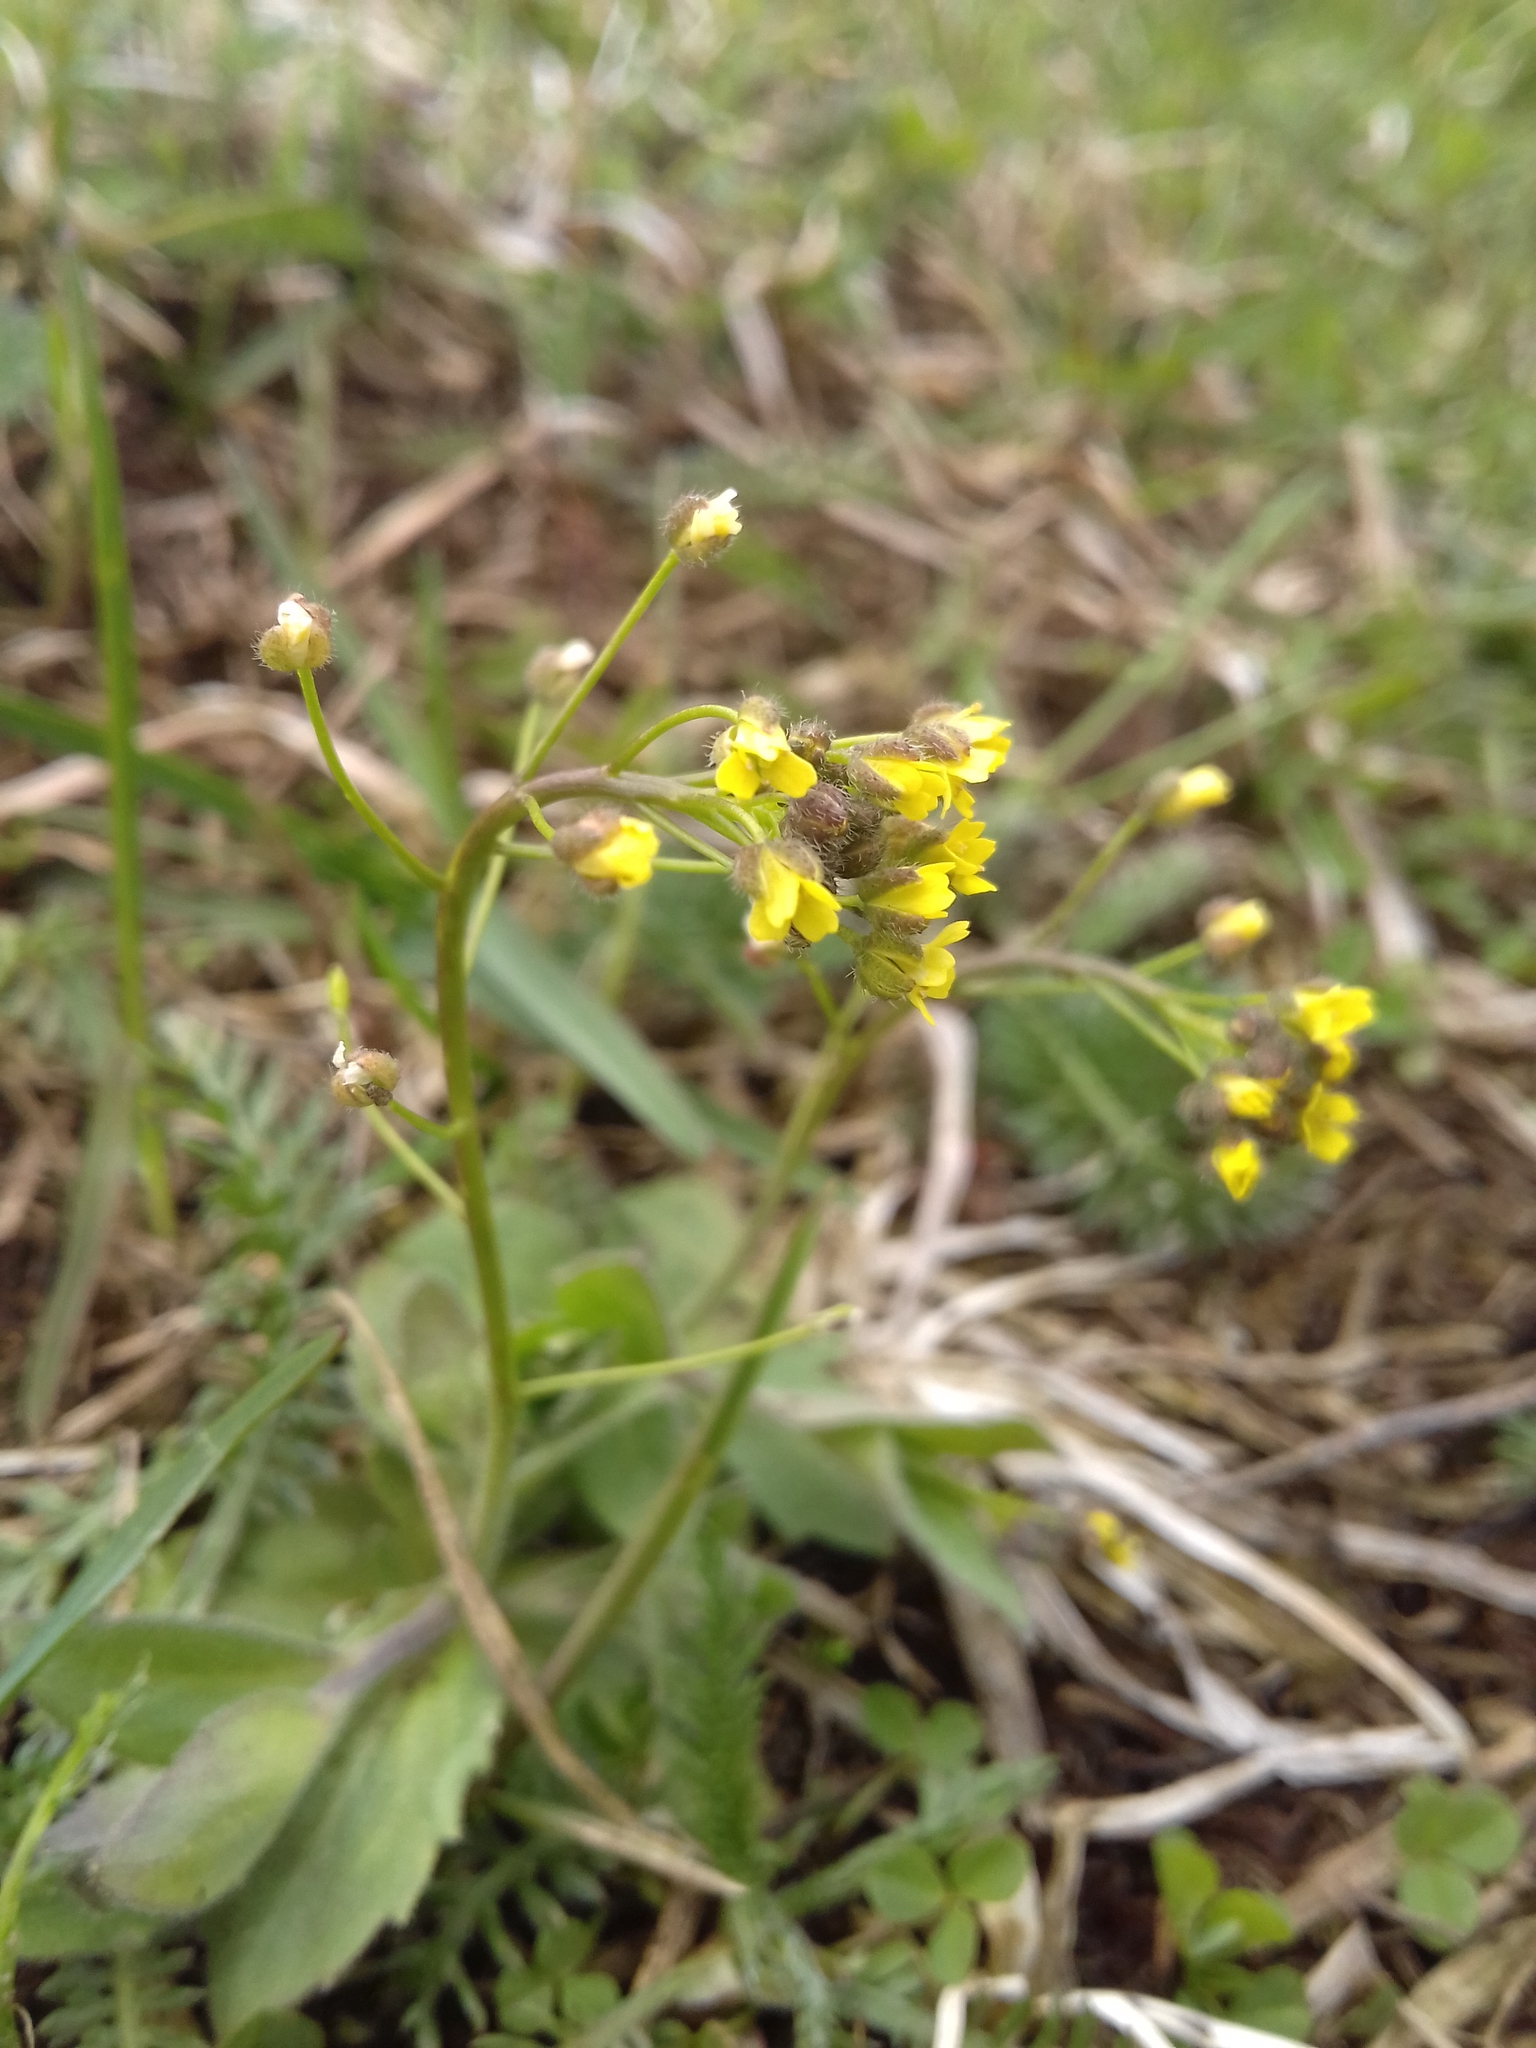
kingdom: Plantae
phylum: Tracheophyta
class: Magnoliopsida
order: Brassicales
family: Brassicaceae
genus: Draba
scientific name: Draba nemorosa
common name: Wood whitlow-grass
